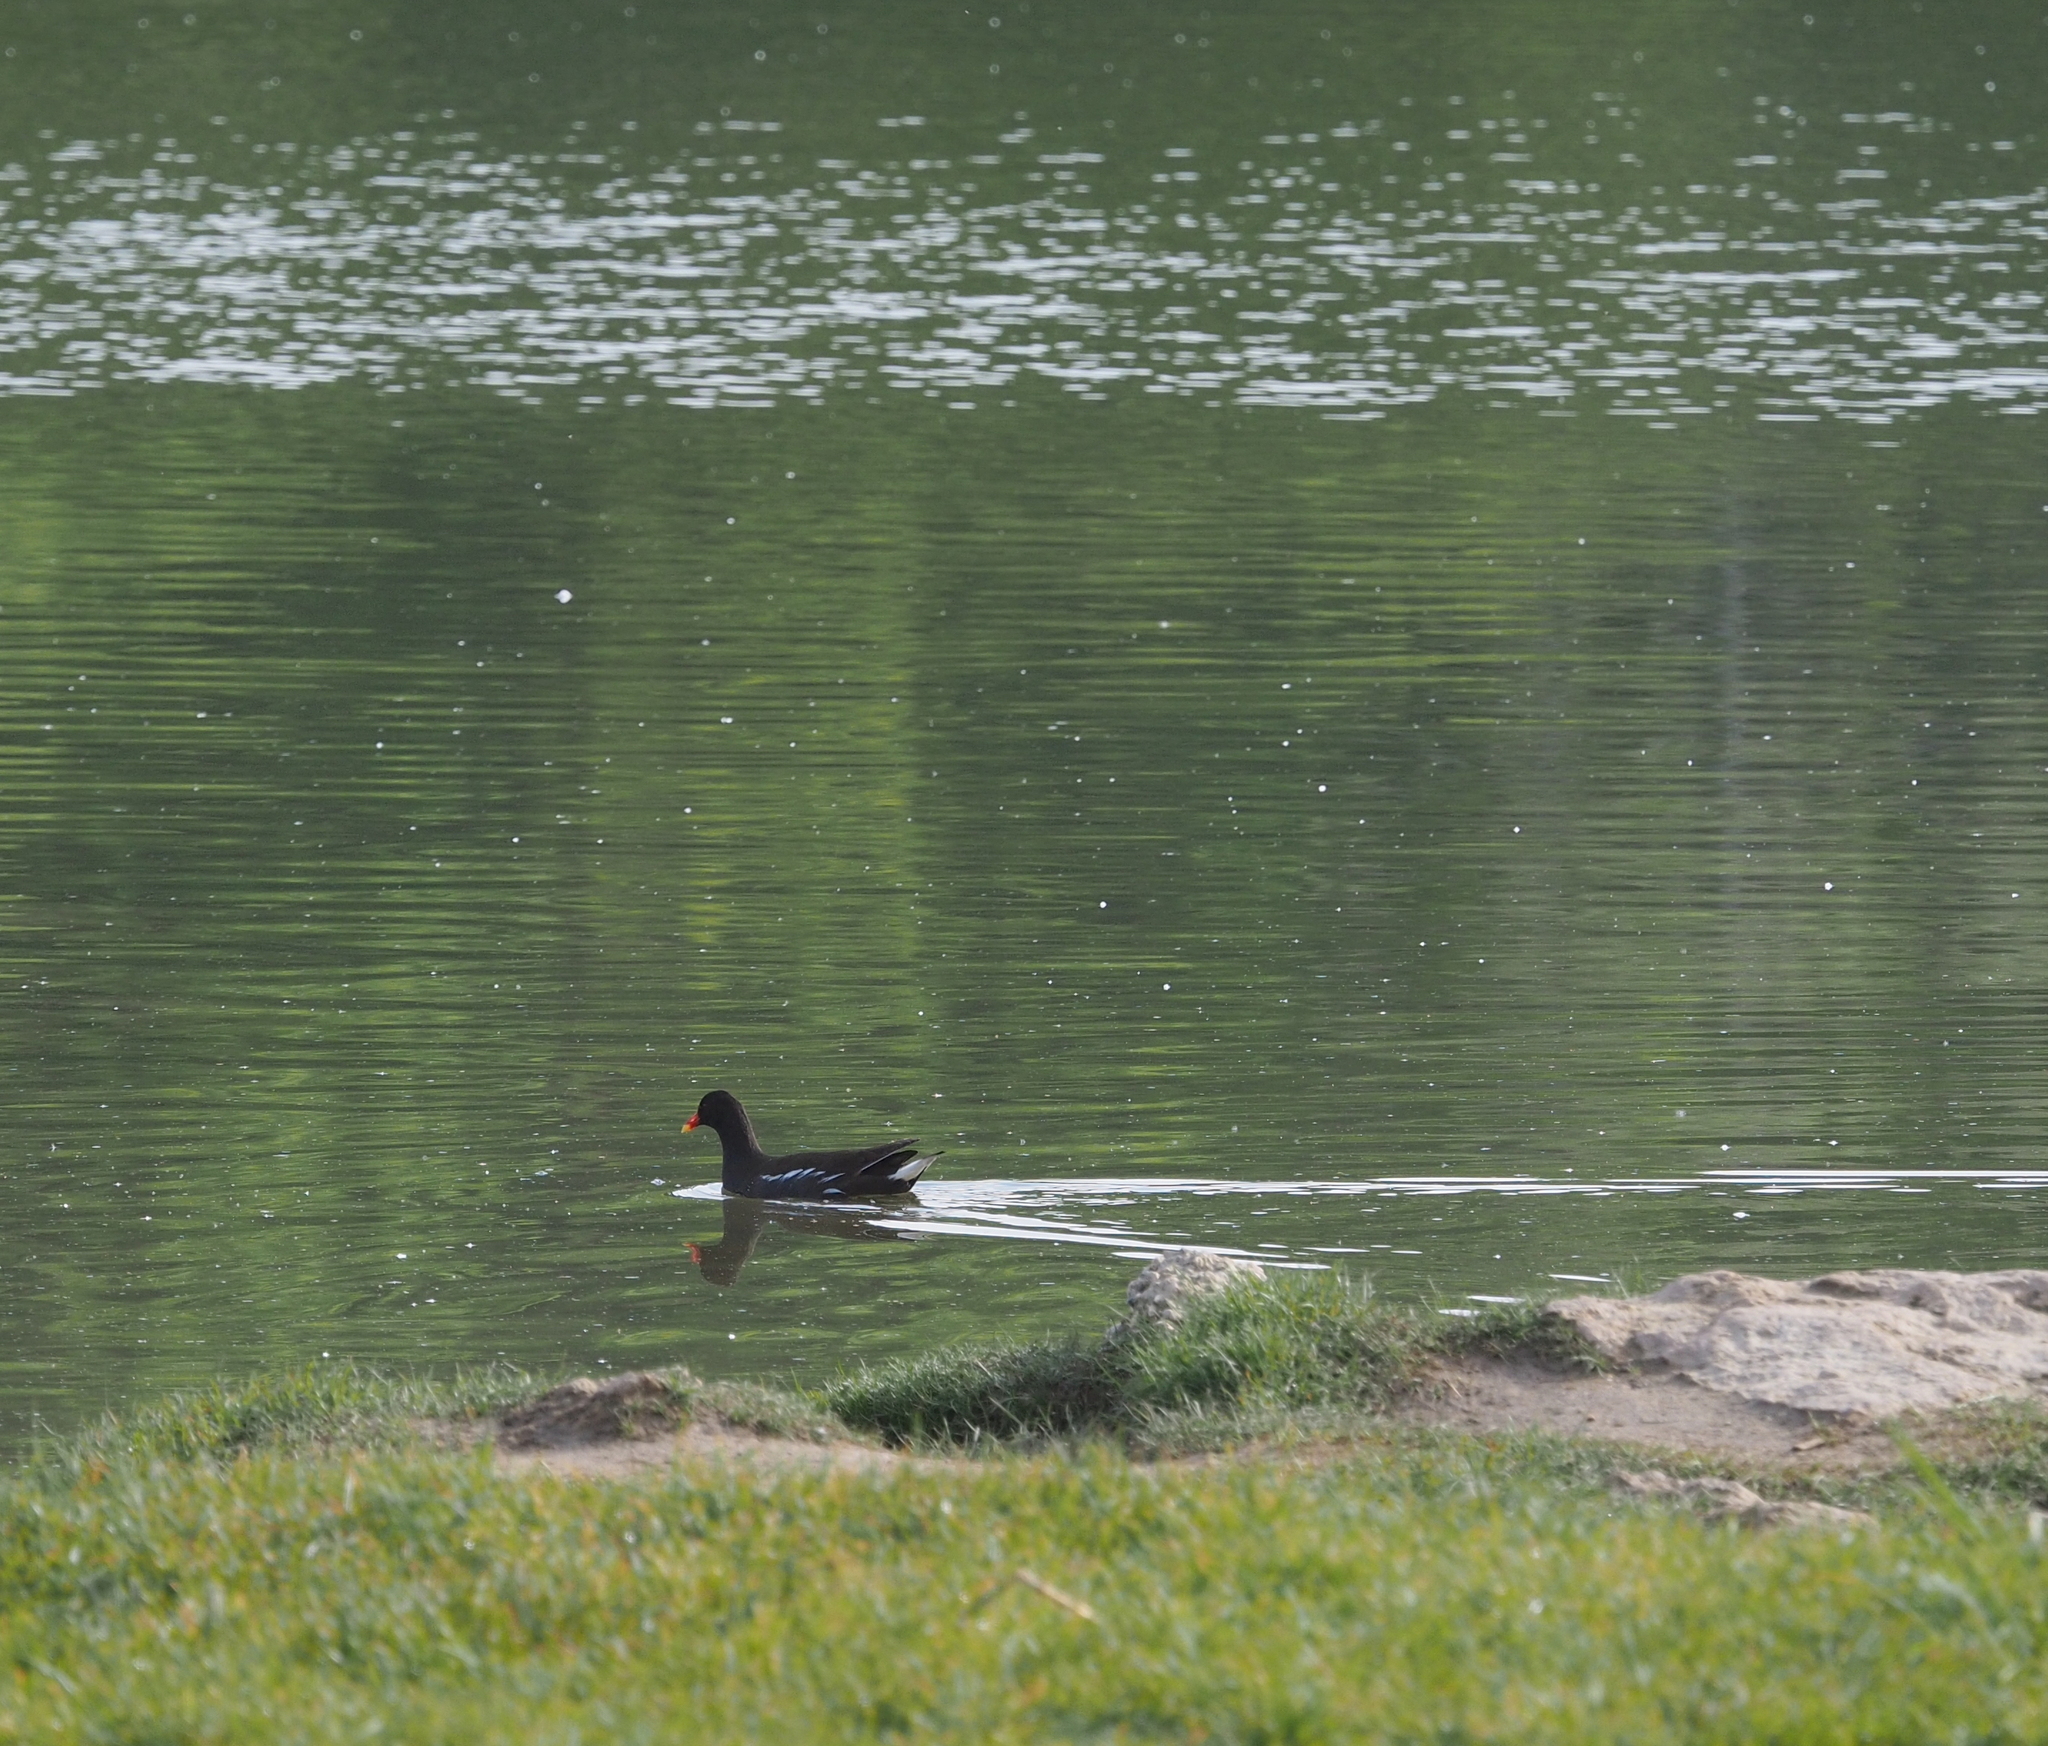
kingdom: Animalia
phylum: Chordata
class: Aves
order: Gruiformes
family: Rallidae
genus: Gallinula
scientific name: Gallinula chloropus
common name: Common moorhen
